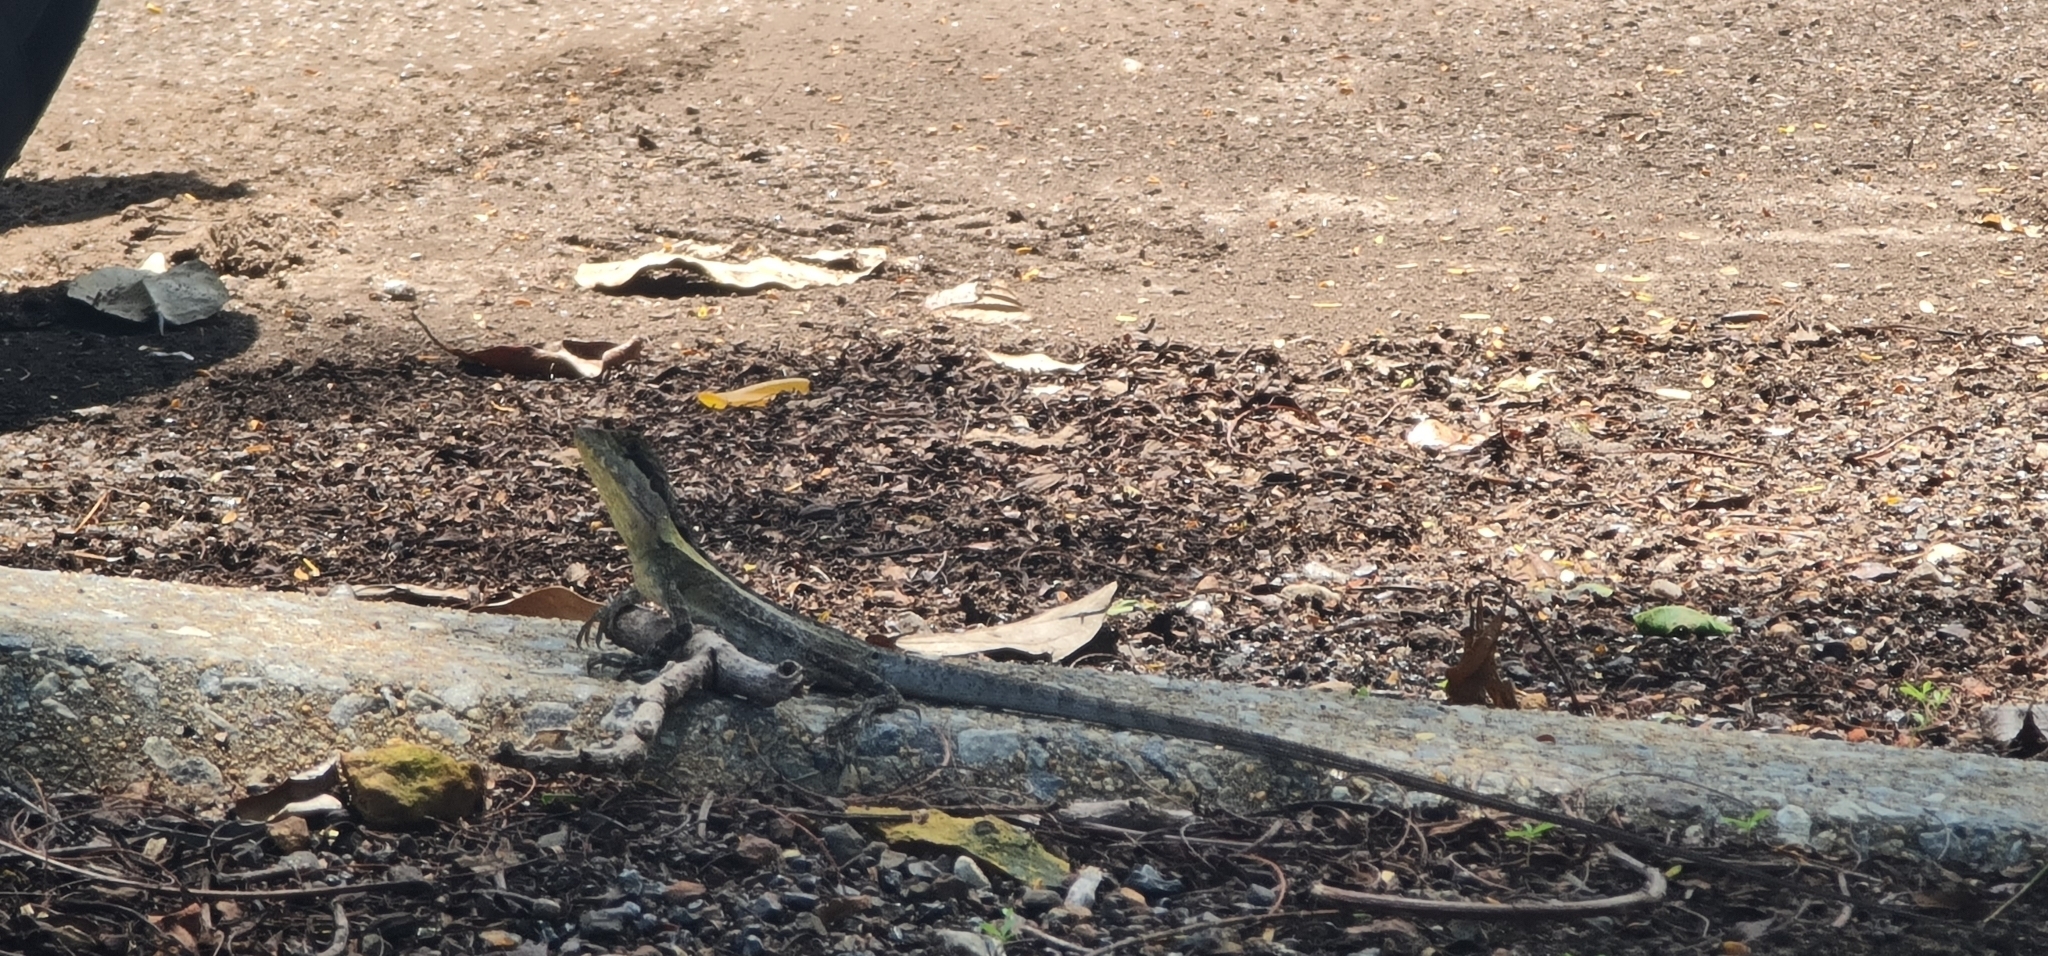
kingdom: Animalia
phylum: Chordata
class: Squamata
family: Agamidae
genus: Tropicagama
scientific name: Tropicagama temporalis
